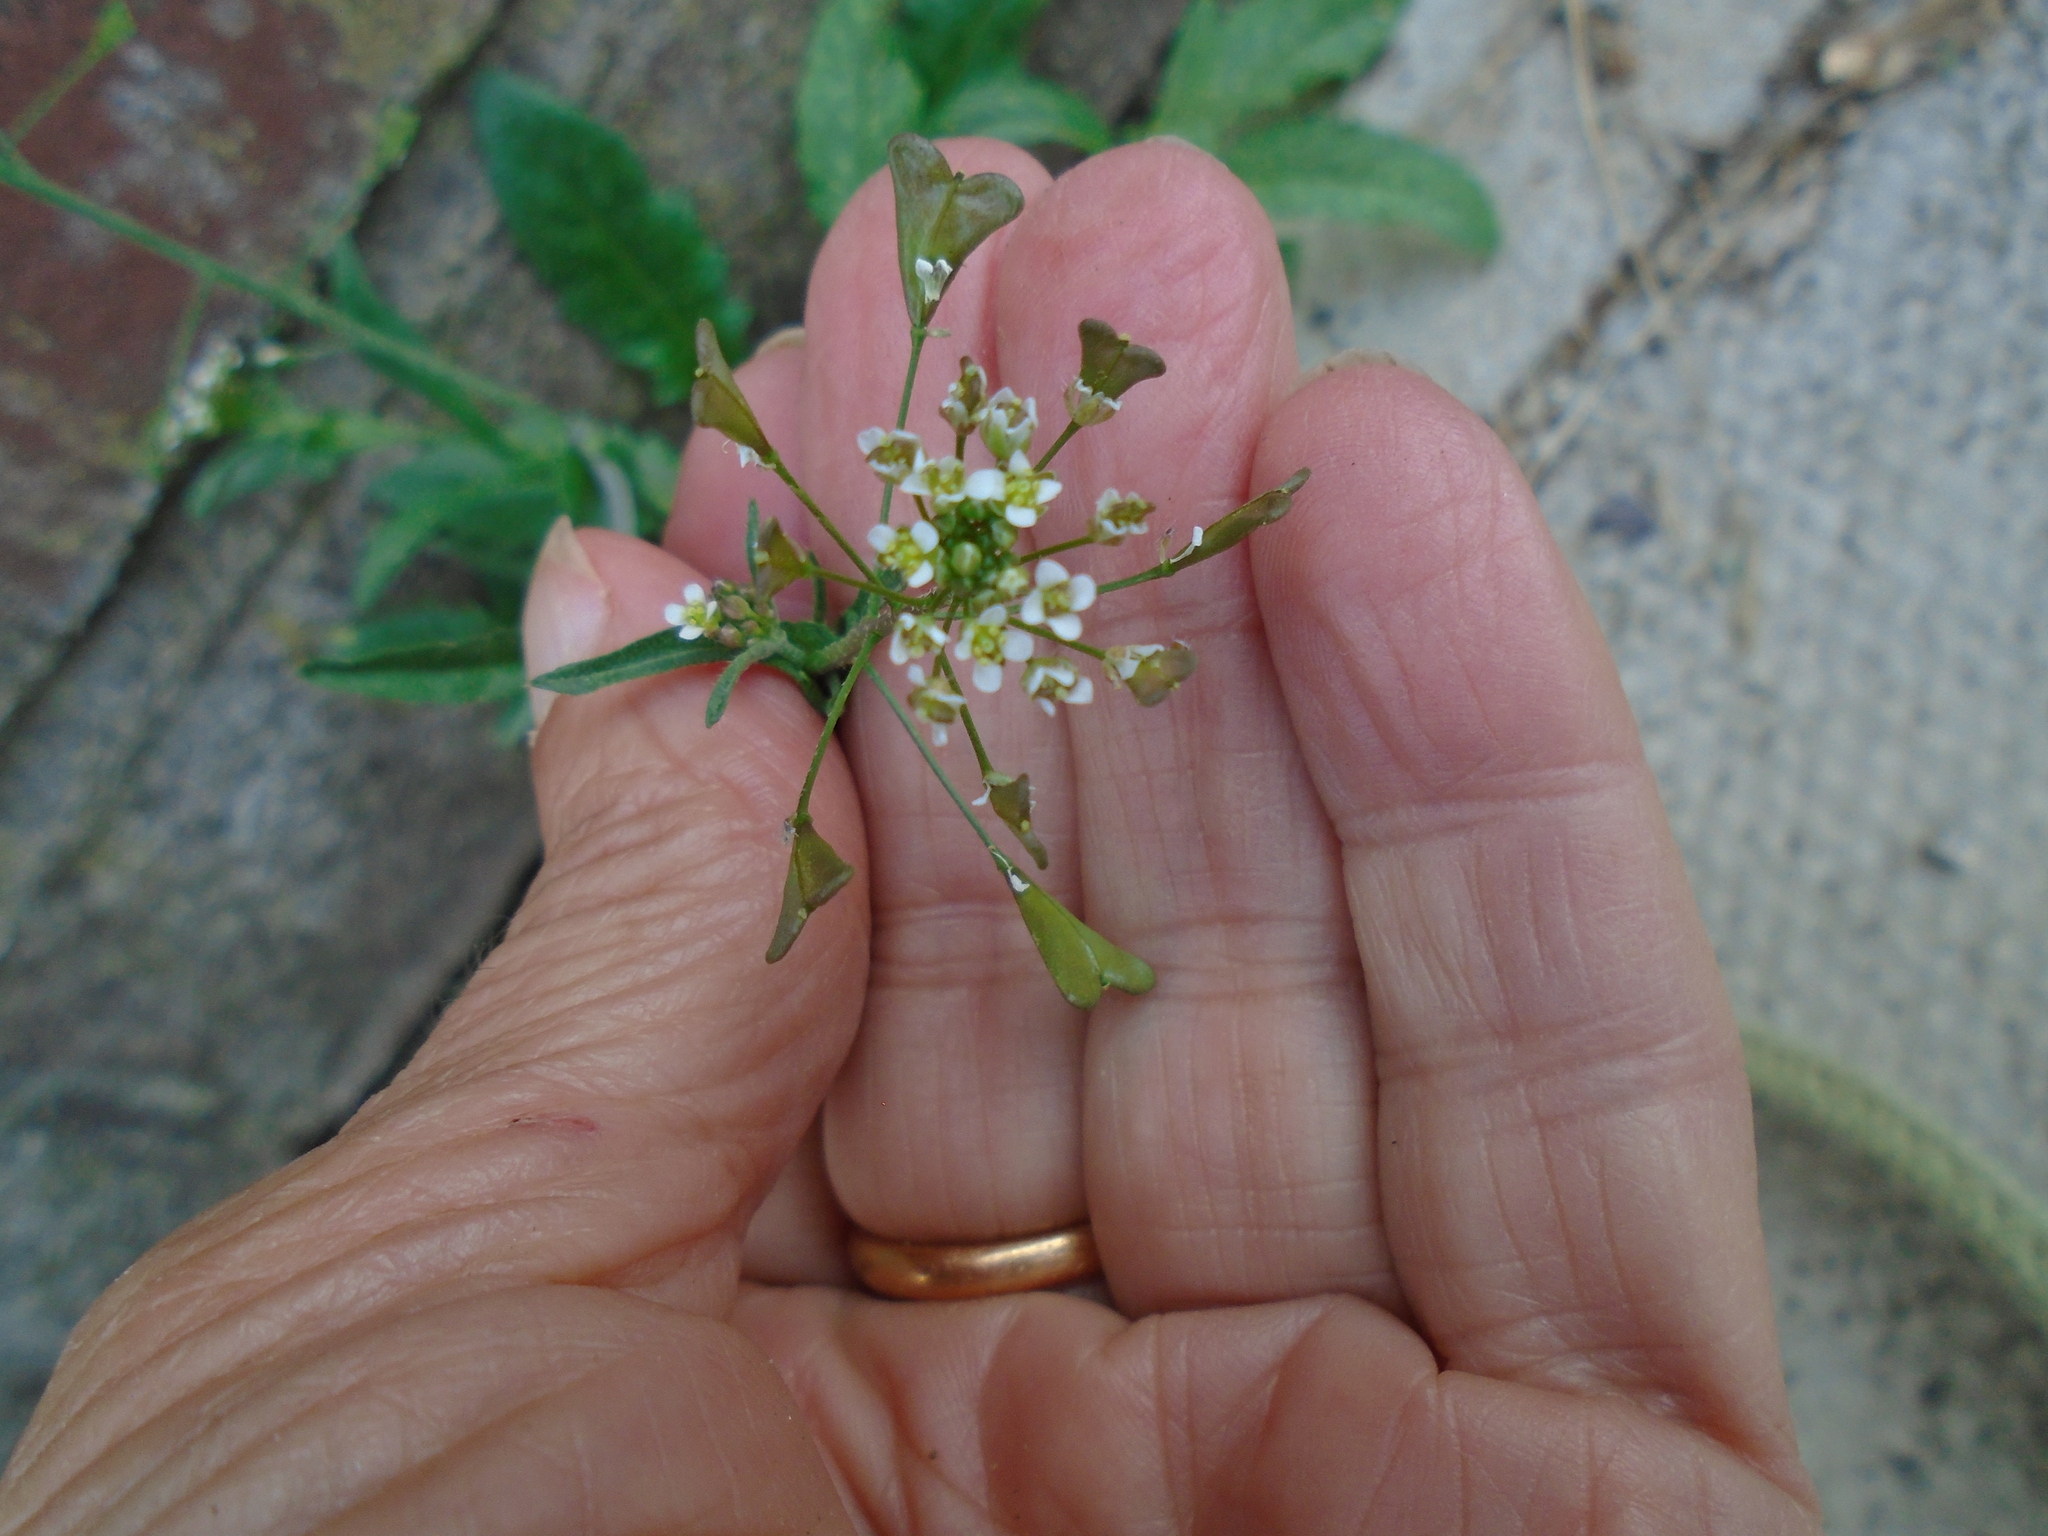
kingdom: Plantae
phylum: Tracheophyta
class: Magnoliopsida
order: Brassicales
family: Brassicaceae
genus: Capsella
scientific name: Capsella bursa-pastoris
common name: Shepherd's purse
